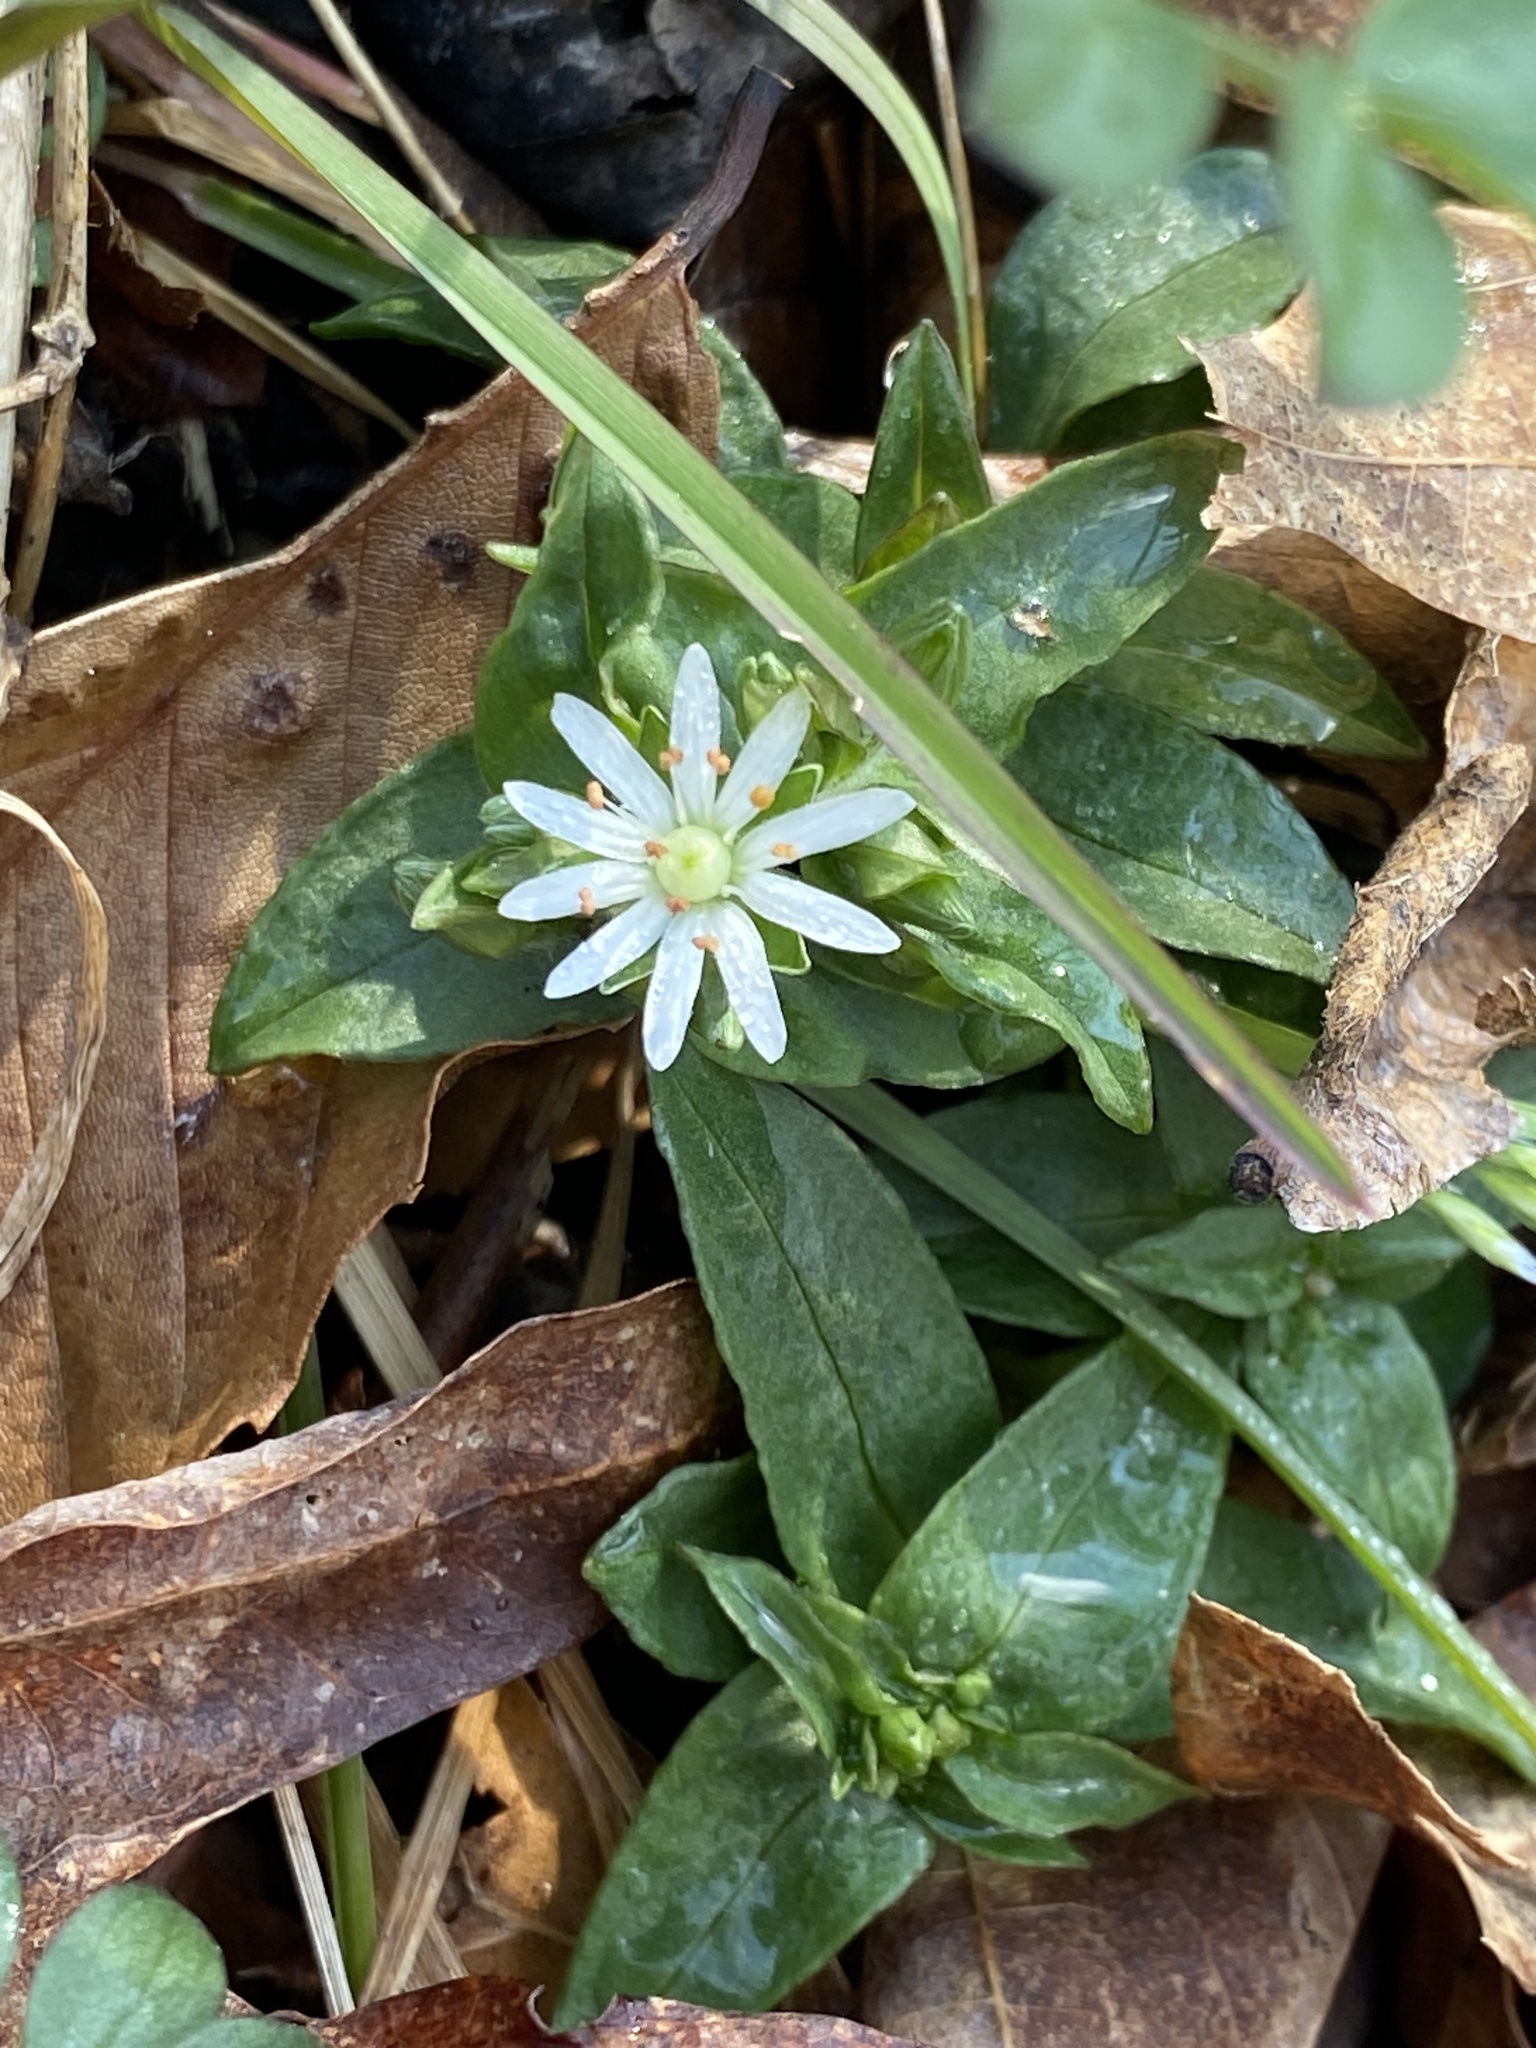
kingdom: Plantae
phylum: Tracheophyta
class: Magnoliopsida
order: Caryophyllales
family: Caryophyllaceae
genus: Stellaria
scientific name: Stellaria pubera
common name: Star chickweed
